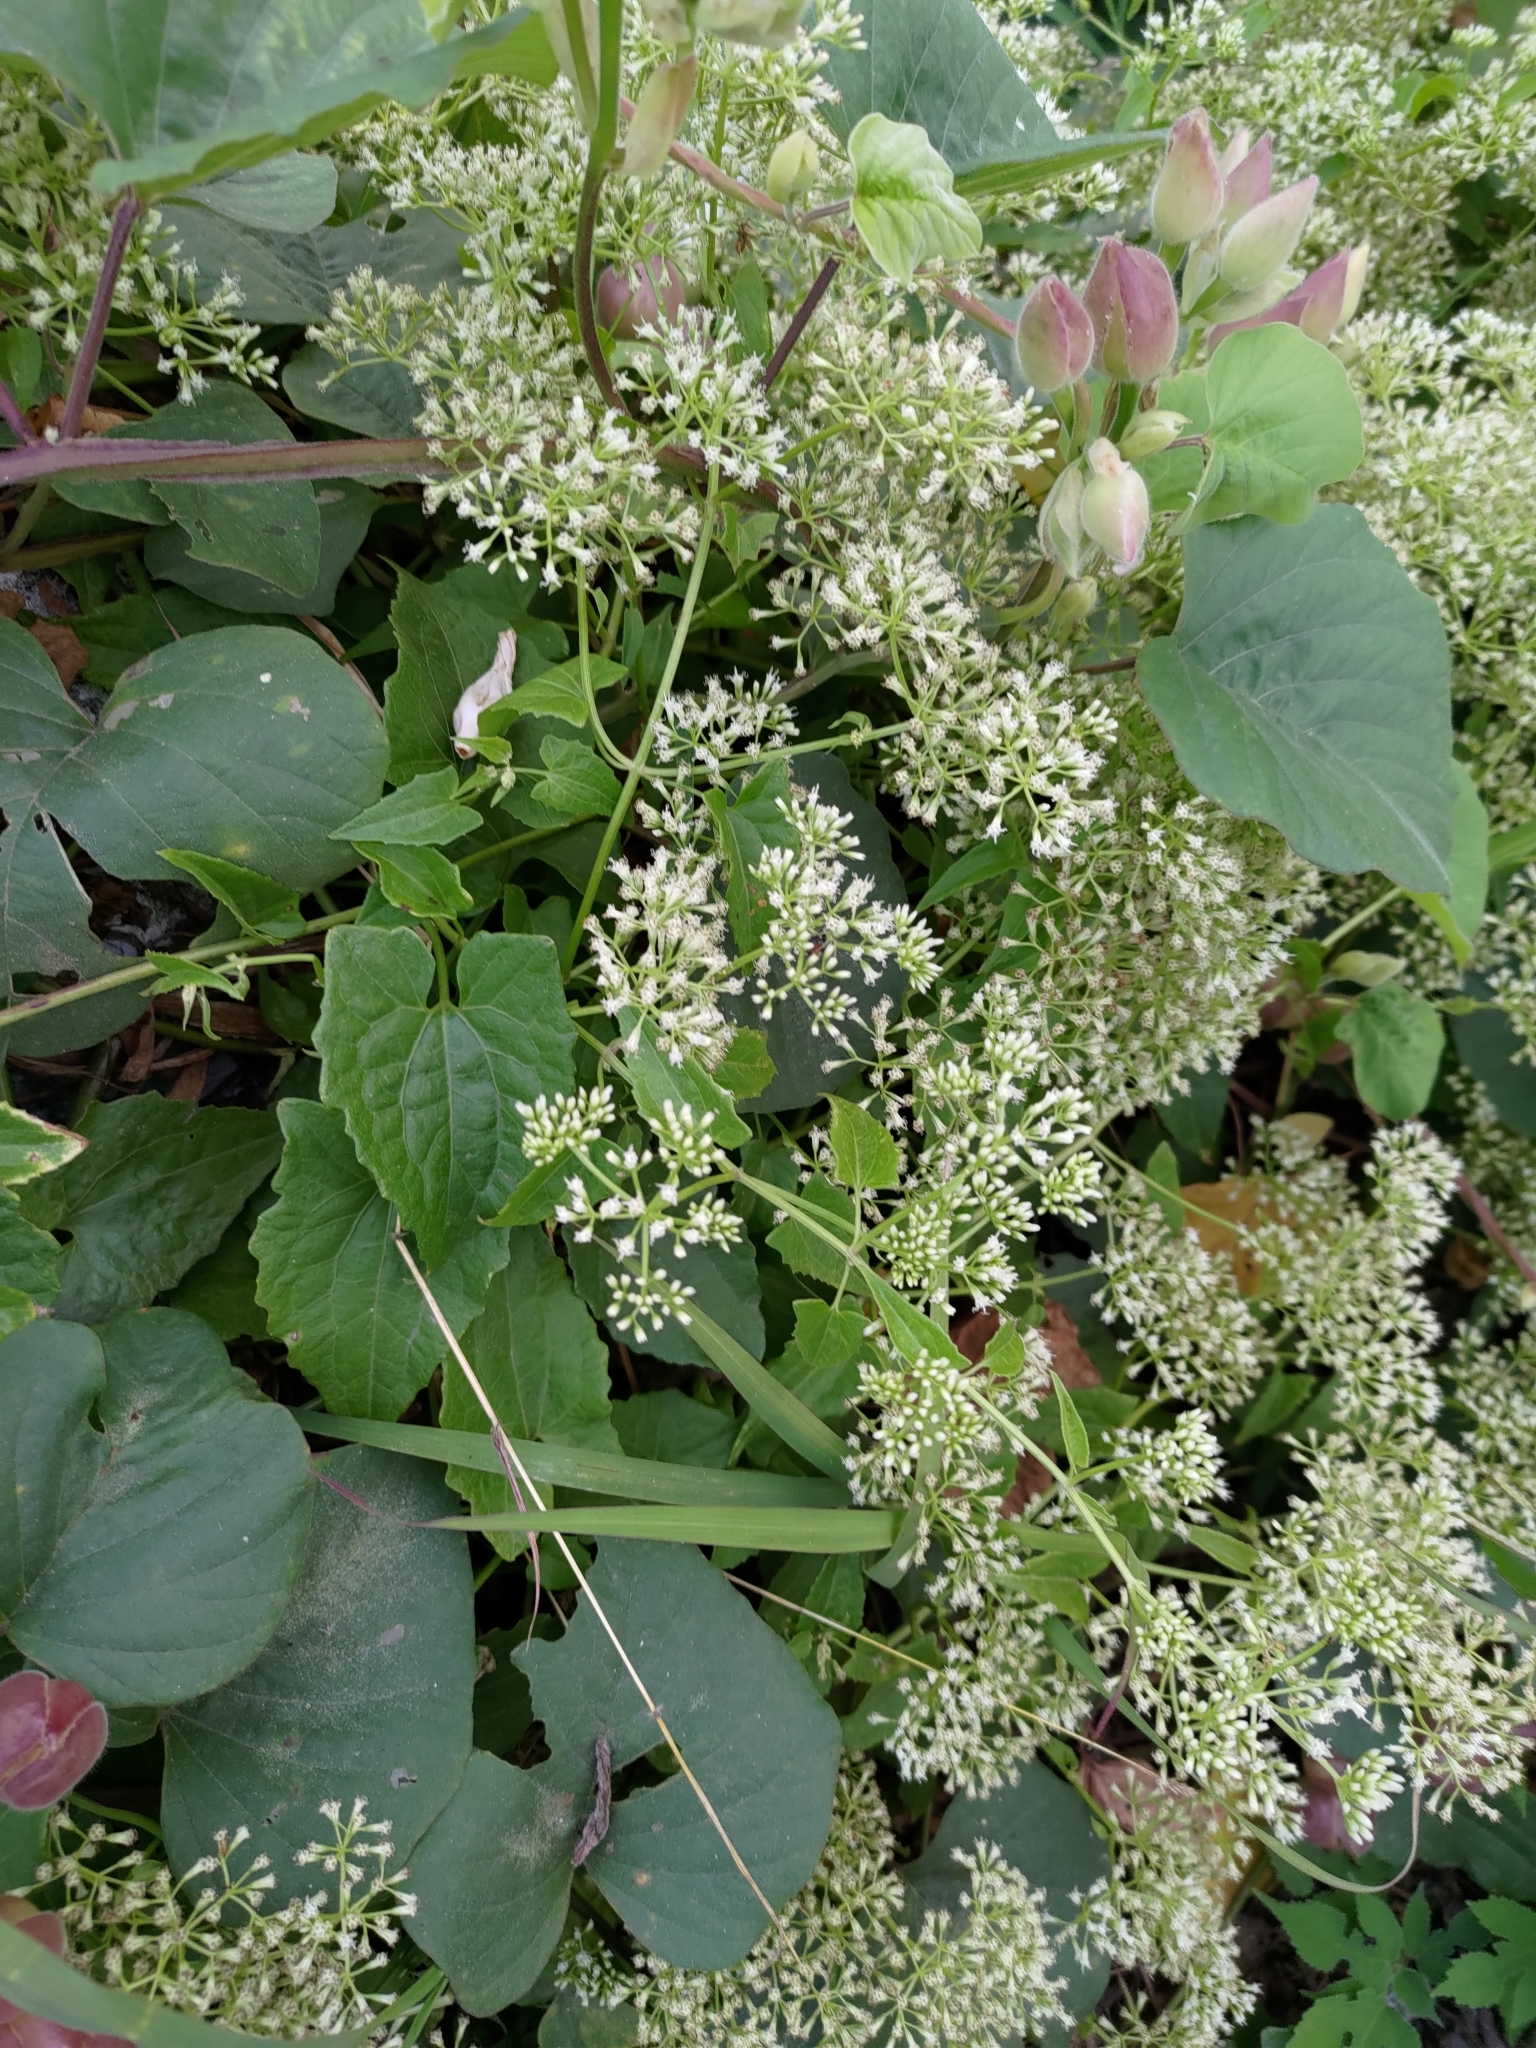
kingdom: Plantae
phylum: Tracheophyta
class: Magnoliopsida
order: Asterales
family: Asteraceae
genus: Mikania
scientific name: Mikania micrantha
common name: Mile-a-minute
